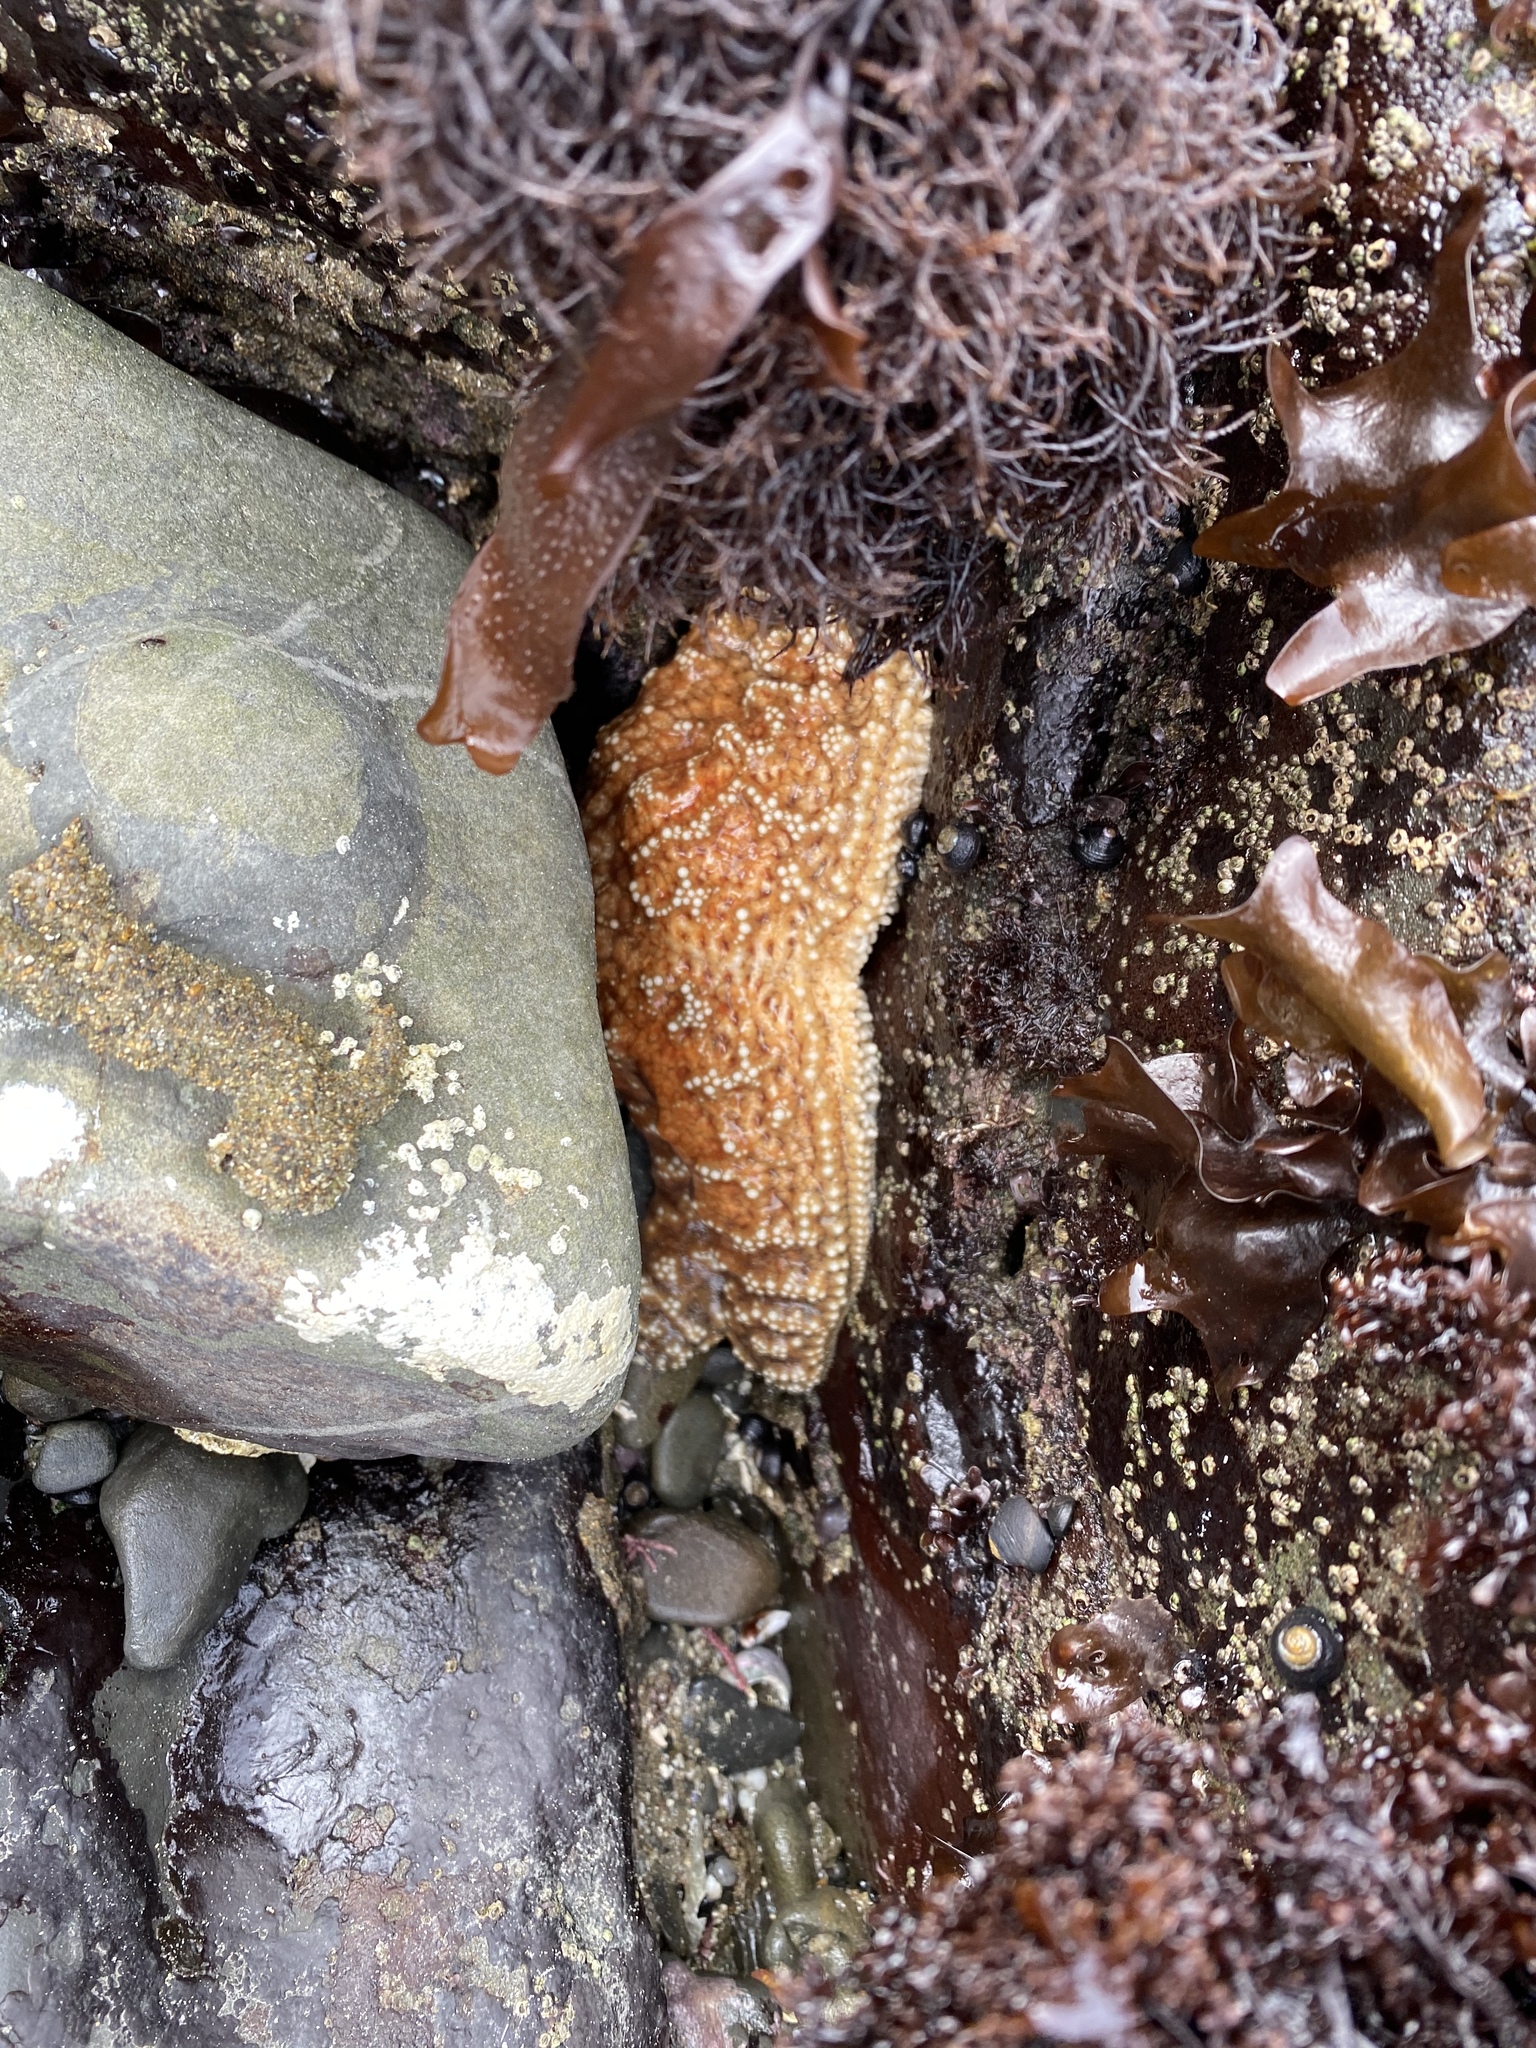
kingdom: Animalia
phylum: Echinodermata
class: Asteroidea
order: Forcipulatida
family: Asteriidae
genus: Pisaster
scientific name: Pisaster ochraceus
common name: Ochre stars
